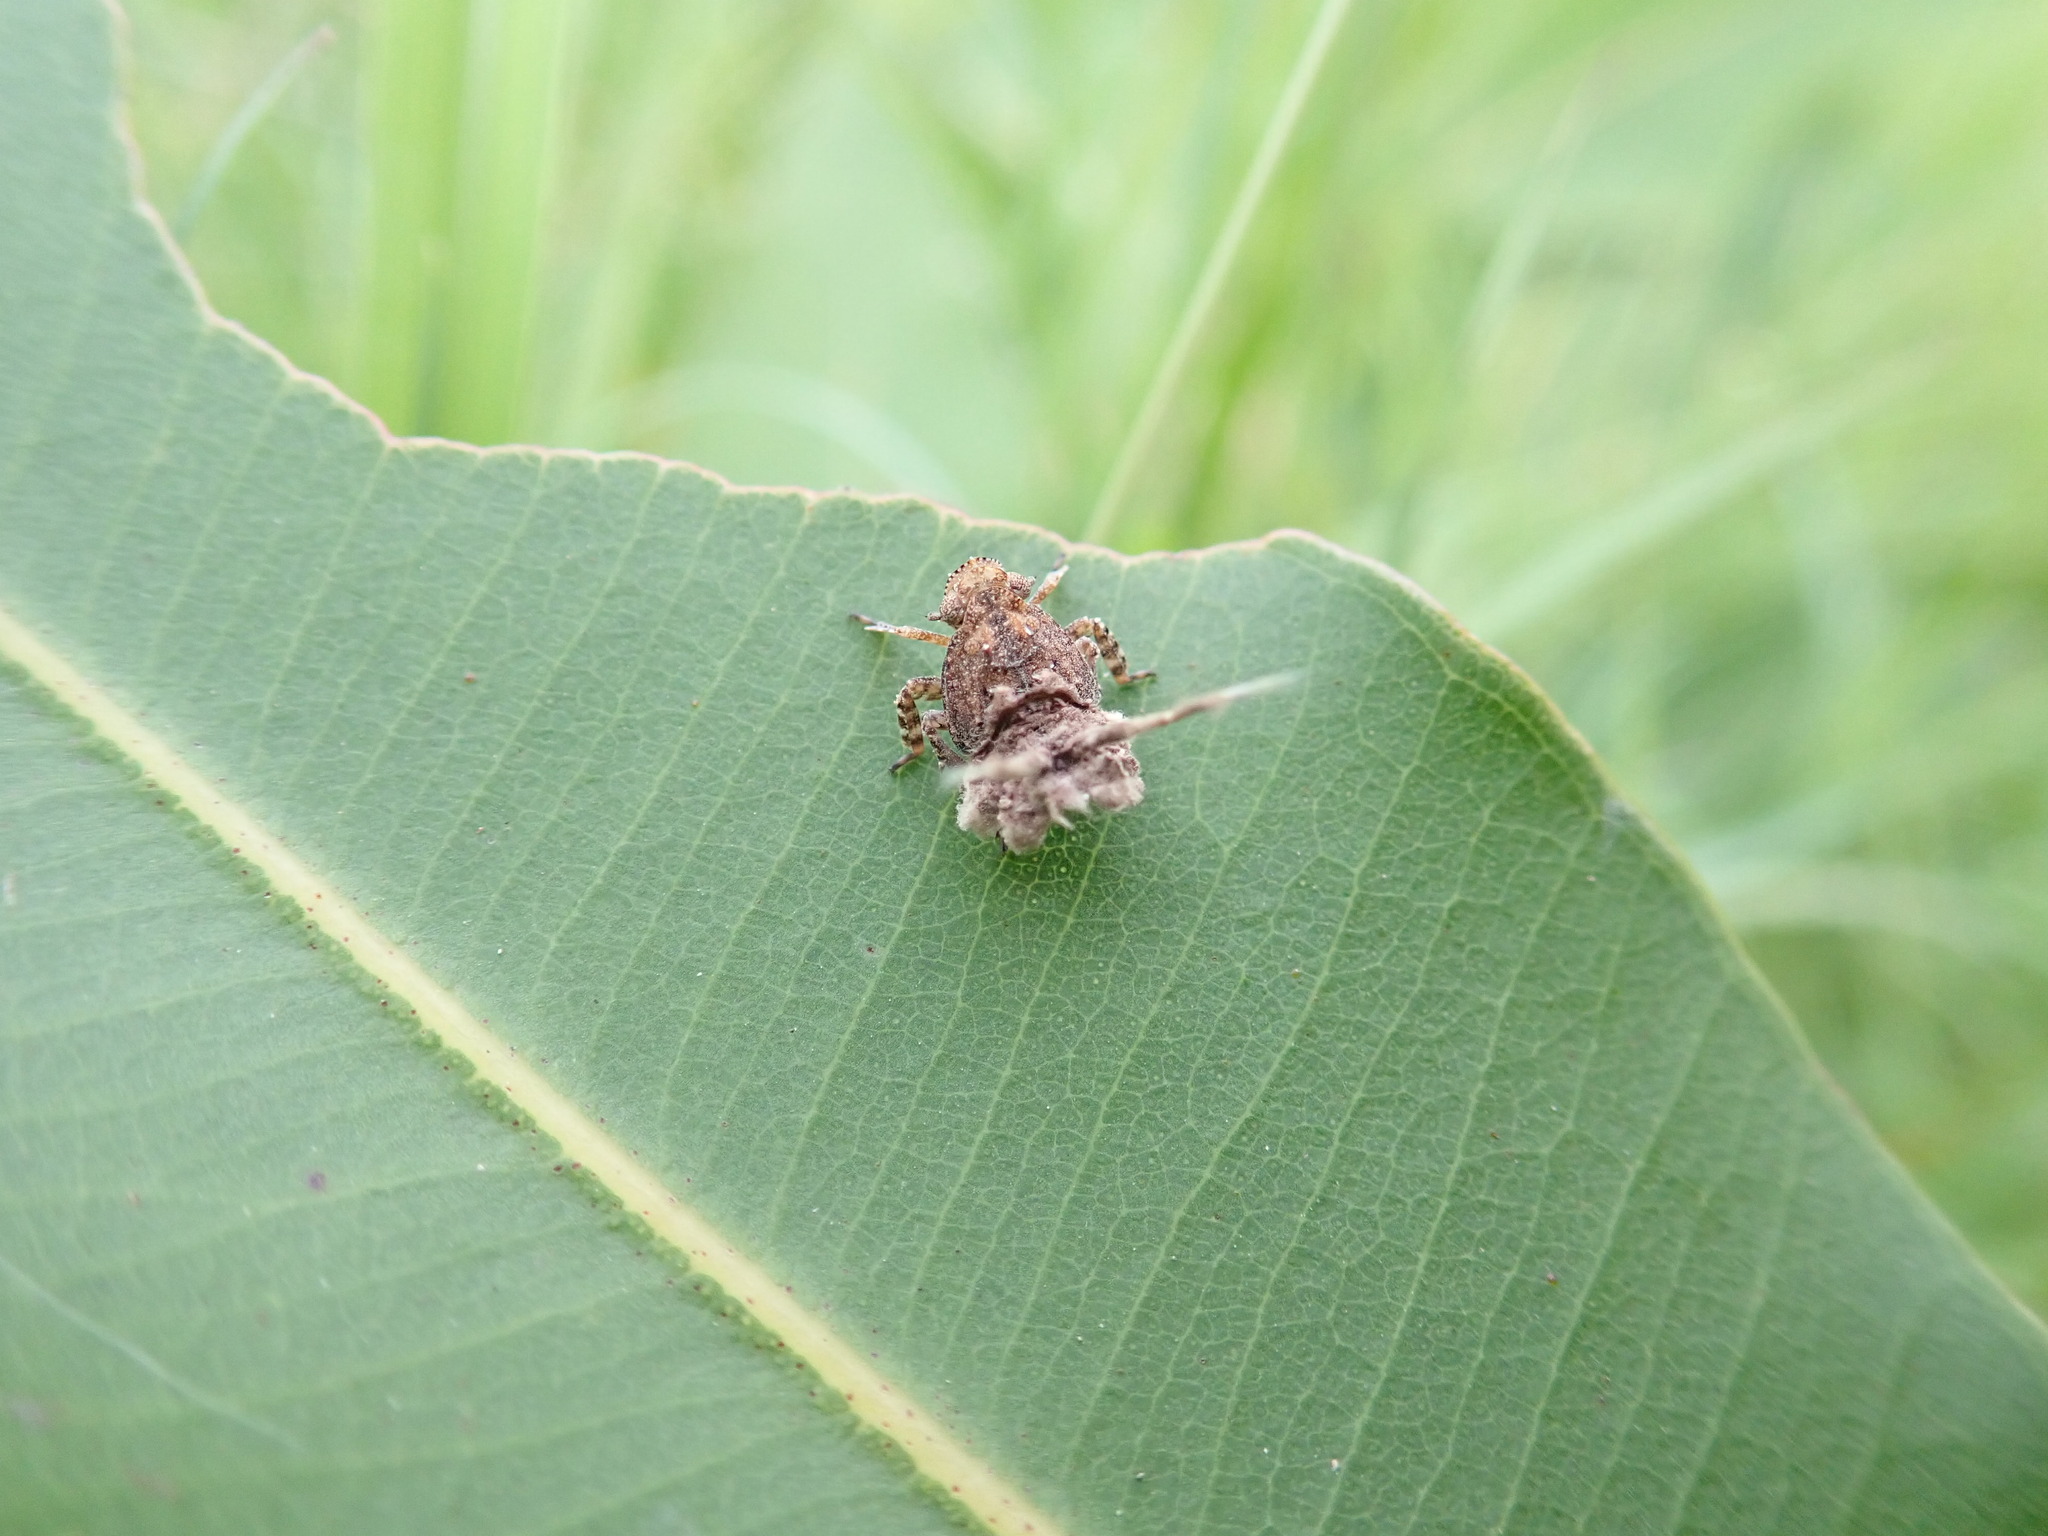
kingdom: Animalia
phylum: Arthropoda
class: Insecta
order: Hemiptera
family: Eurybrachidae
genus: Platybrachys
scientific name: Platybrachys decemmacula
